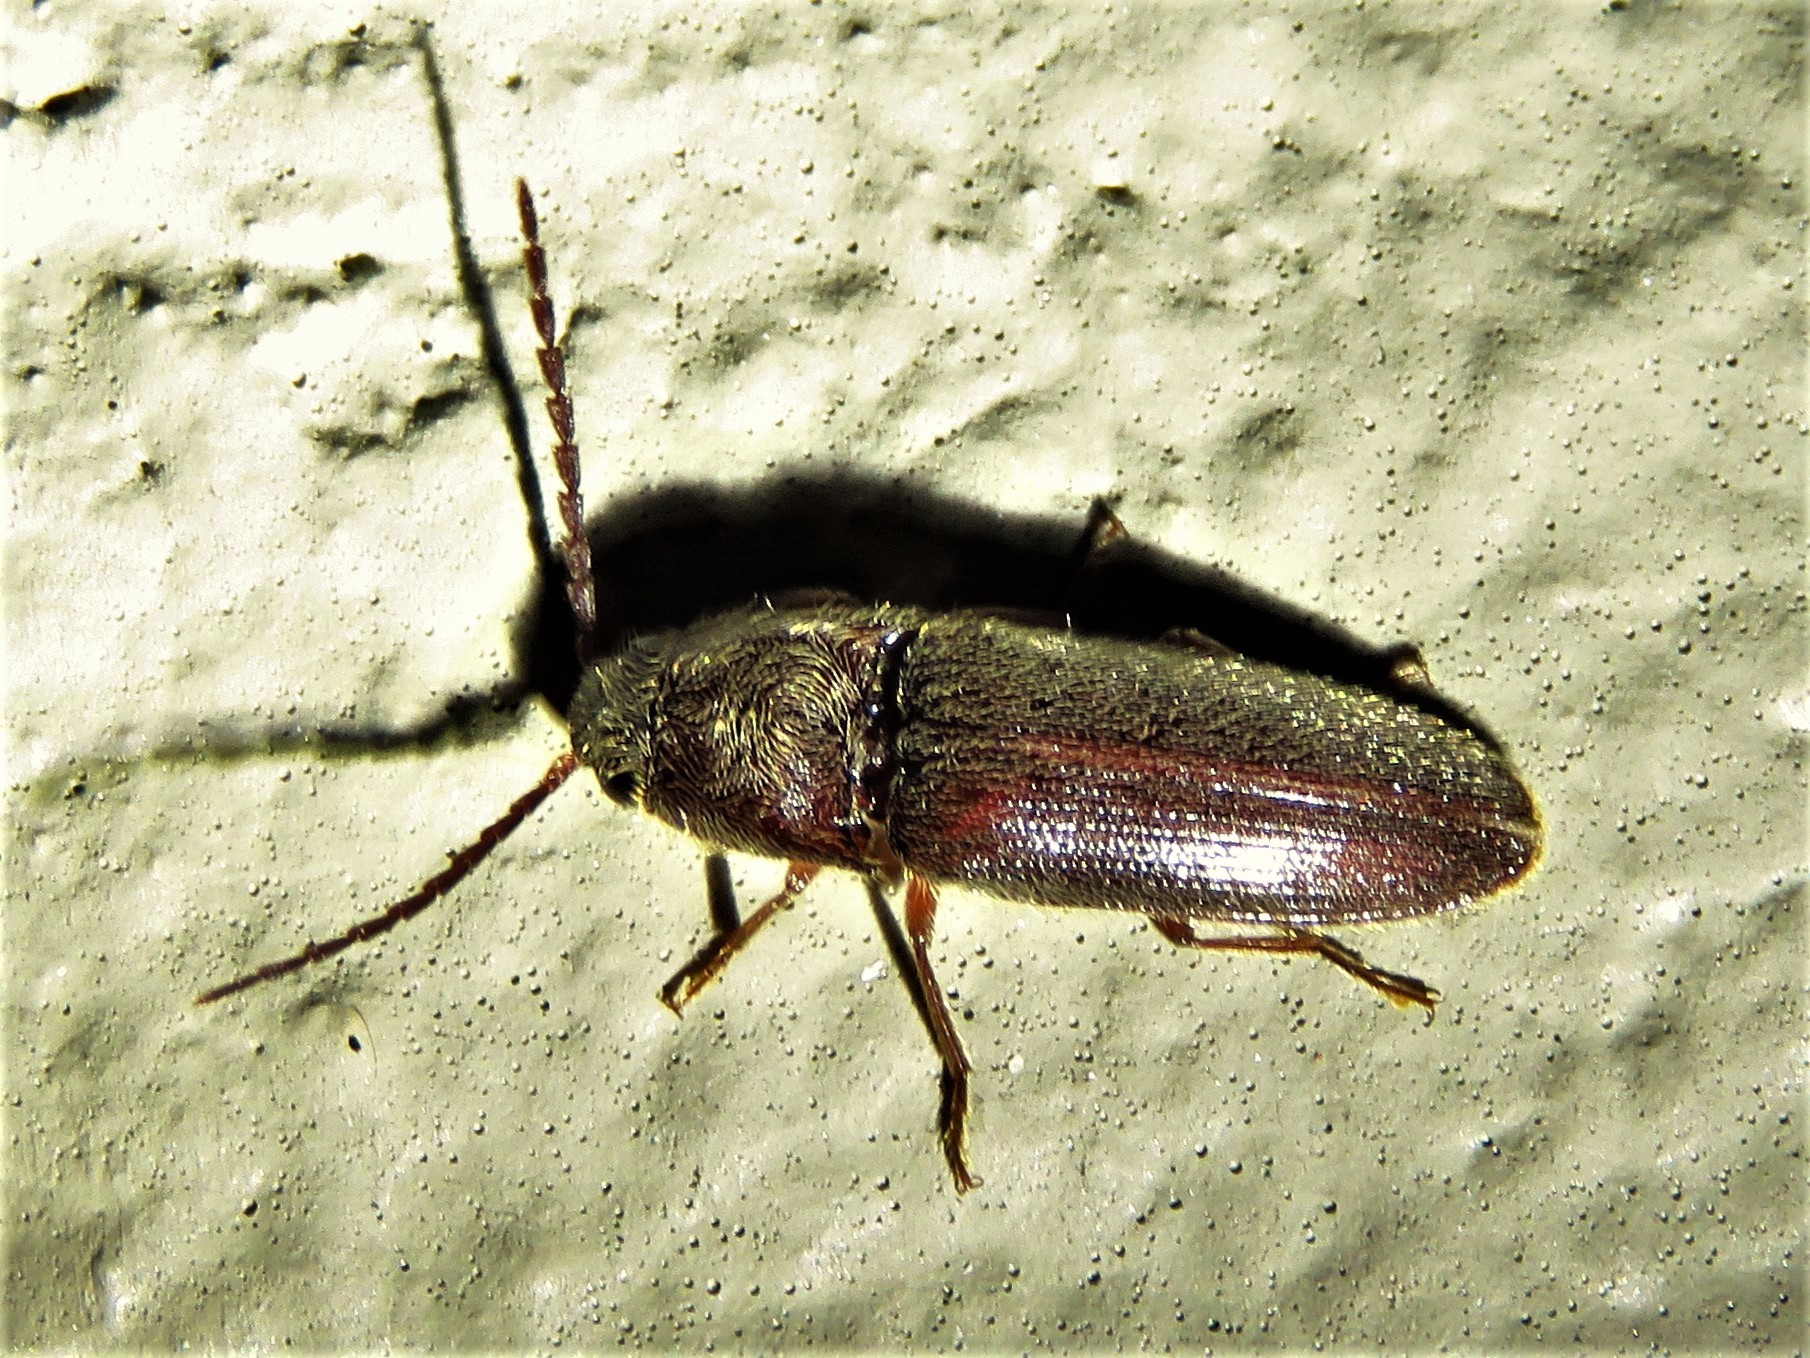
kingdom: Animalia
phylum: Arthropoda
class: Insecta
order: Coleoptera
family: Elateridae
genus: Dipropus
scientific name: Dipropus
